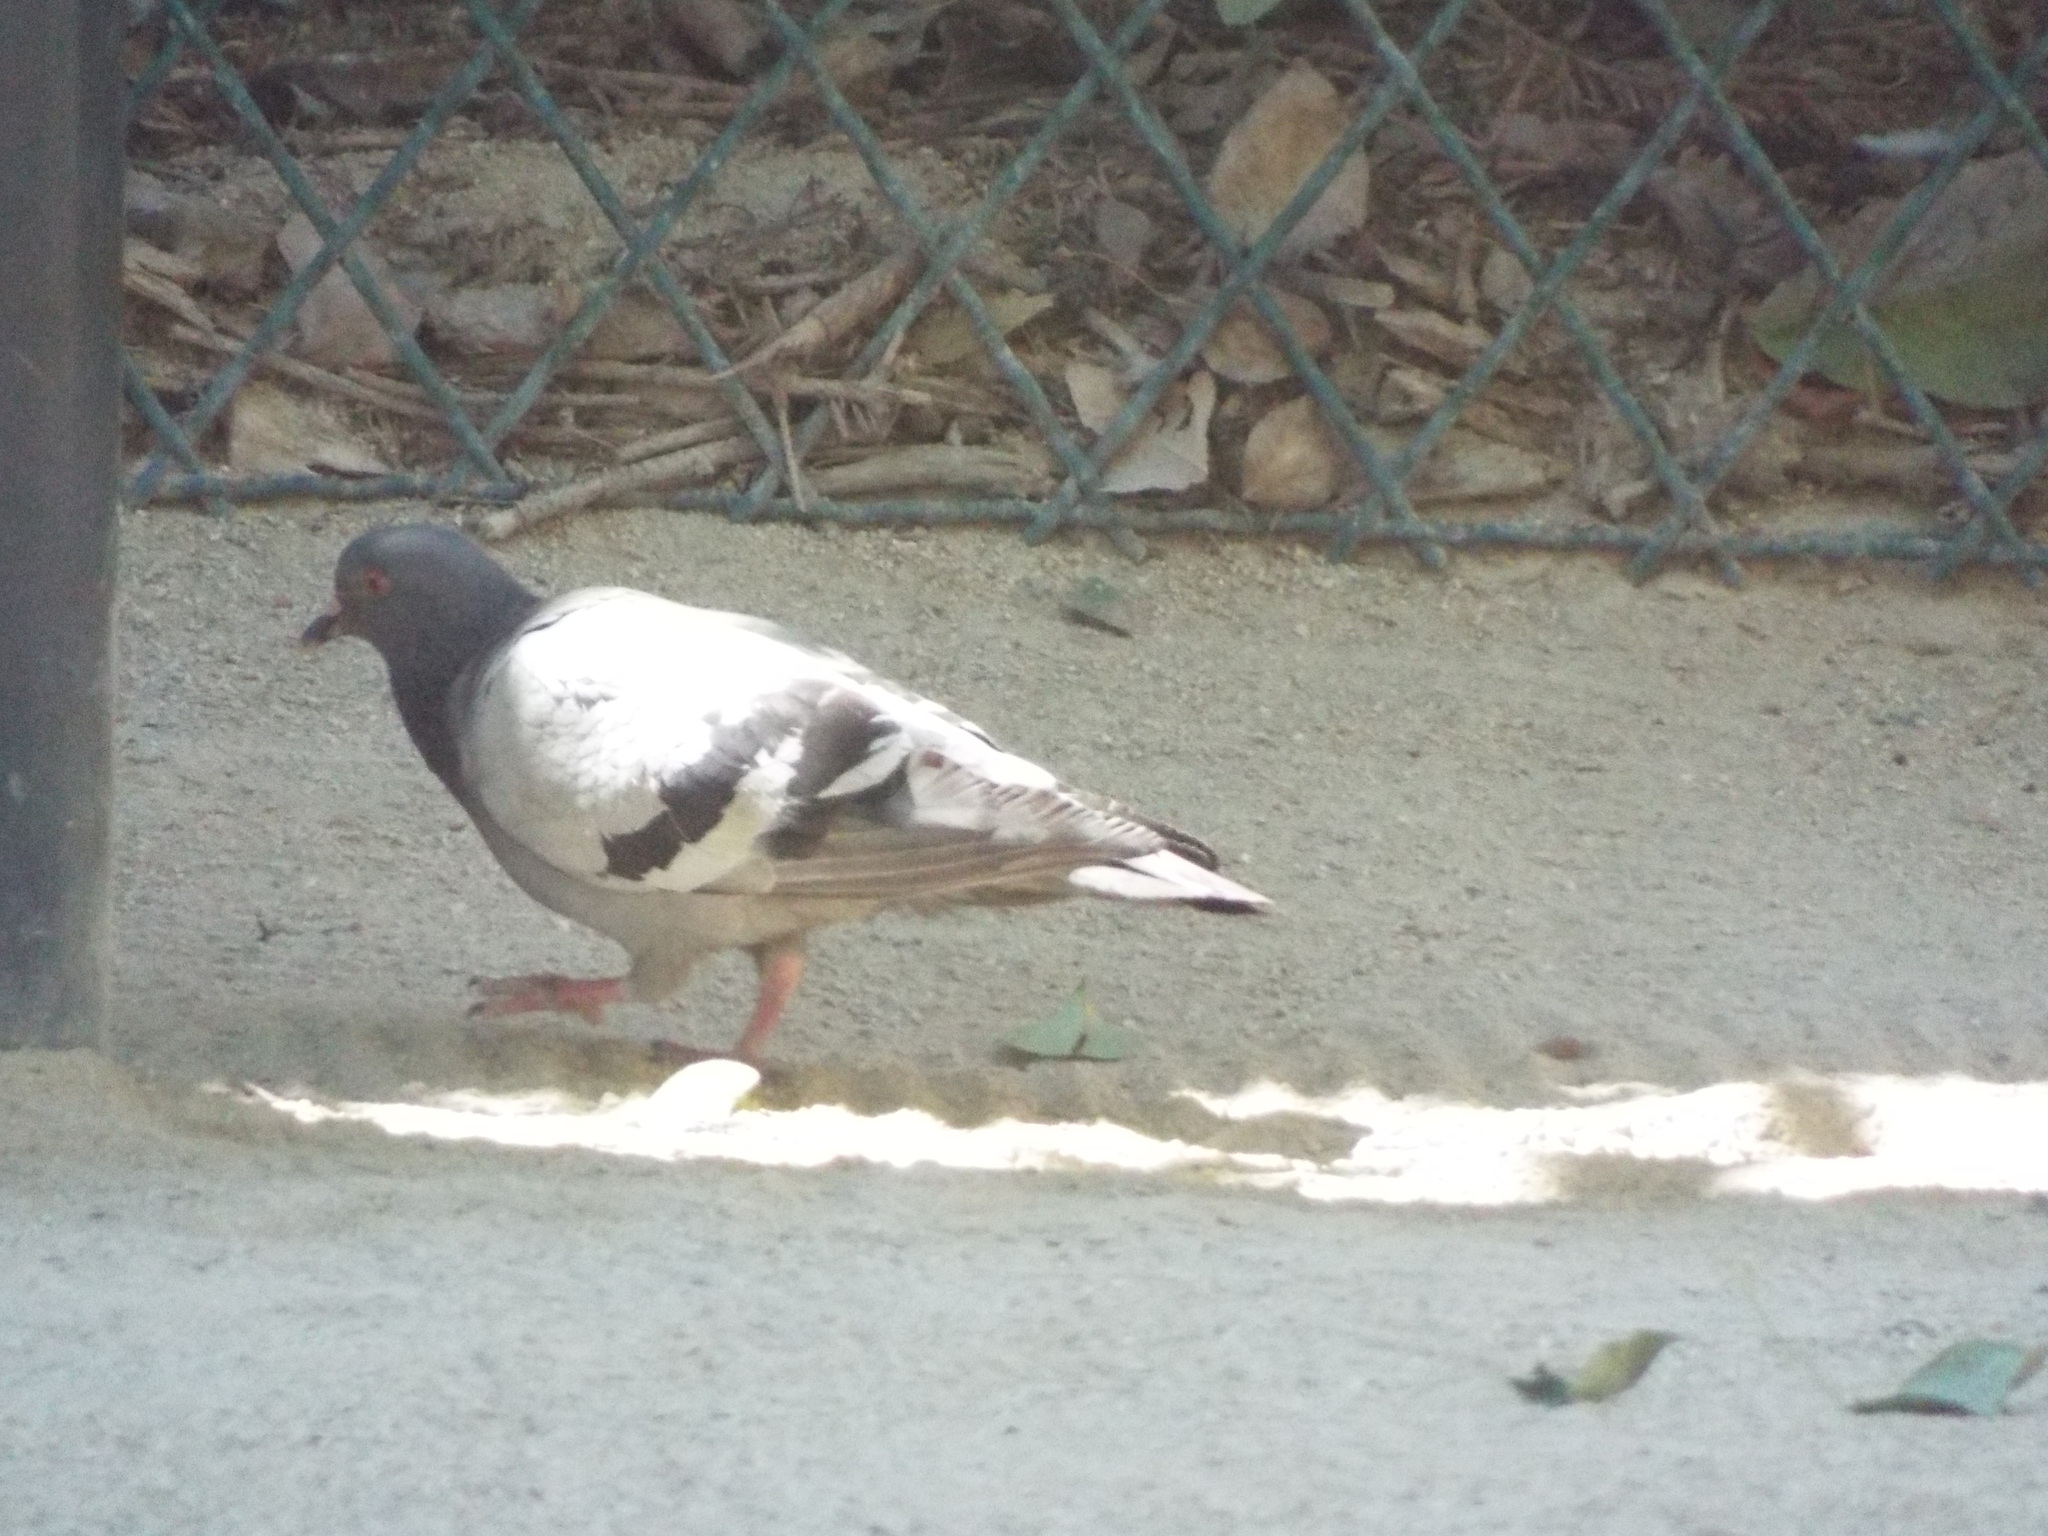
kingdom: Animalia
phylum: Chordata
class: Aves
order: Columbiformes
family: Columbidae
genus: Columba
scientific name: Columba livia
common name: Rock pigeon
